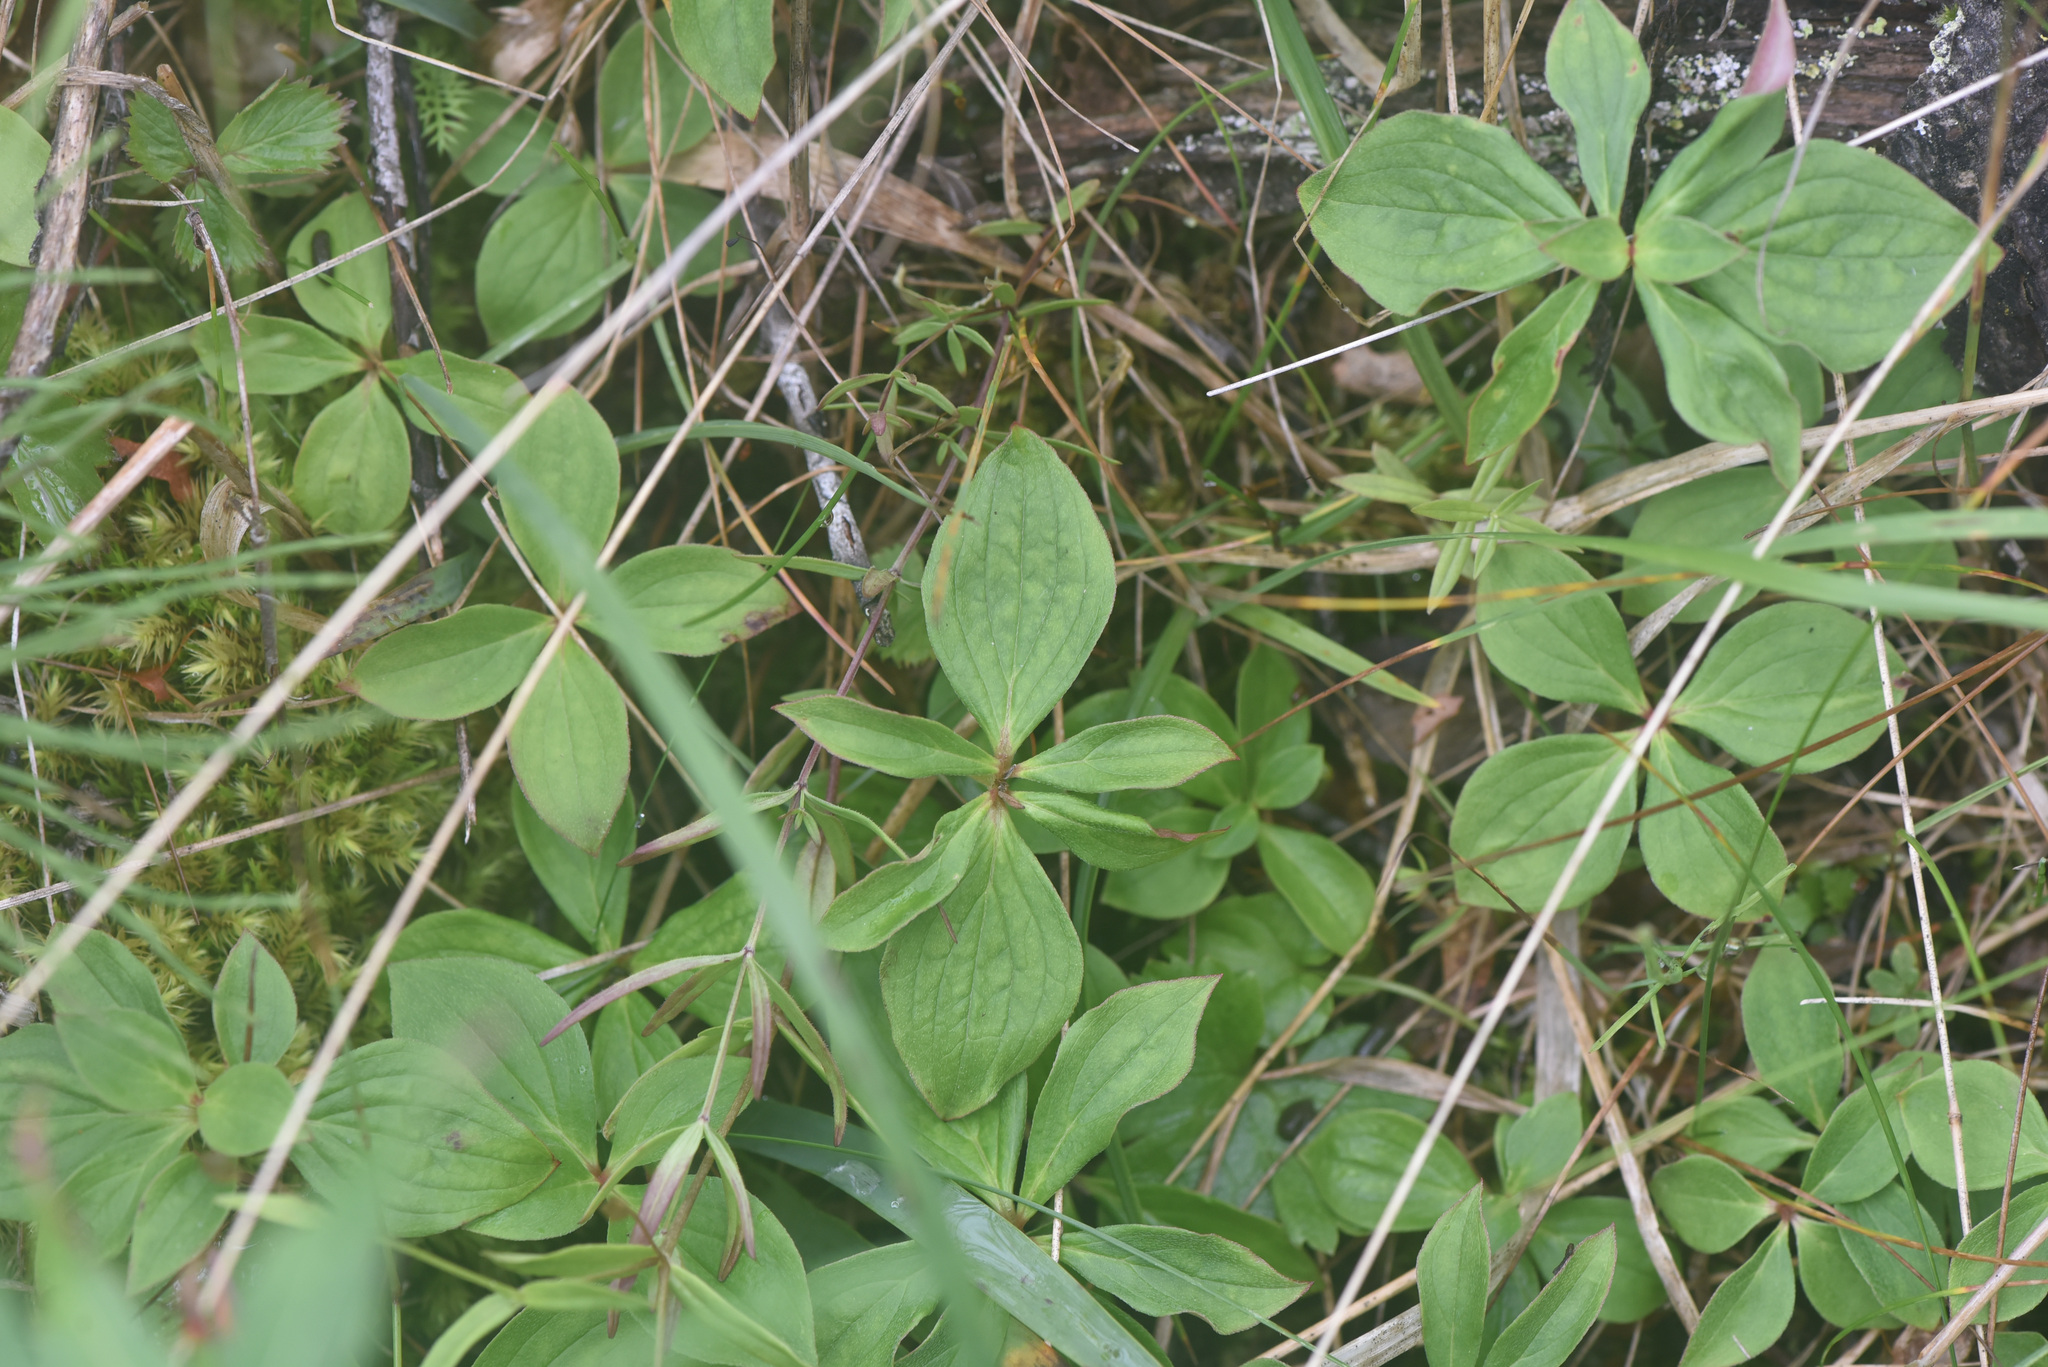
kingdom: Plantae
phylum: Tracheophyta
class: Magnoliopsida
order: Cornales
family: Cornaceae
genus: Cornus
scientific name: Cornus unalaschkensis
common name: Alaska bunchberry
